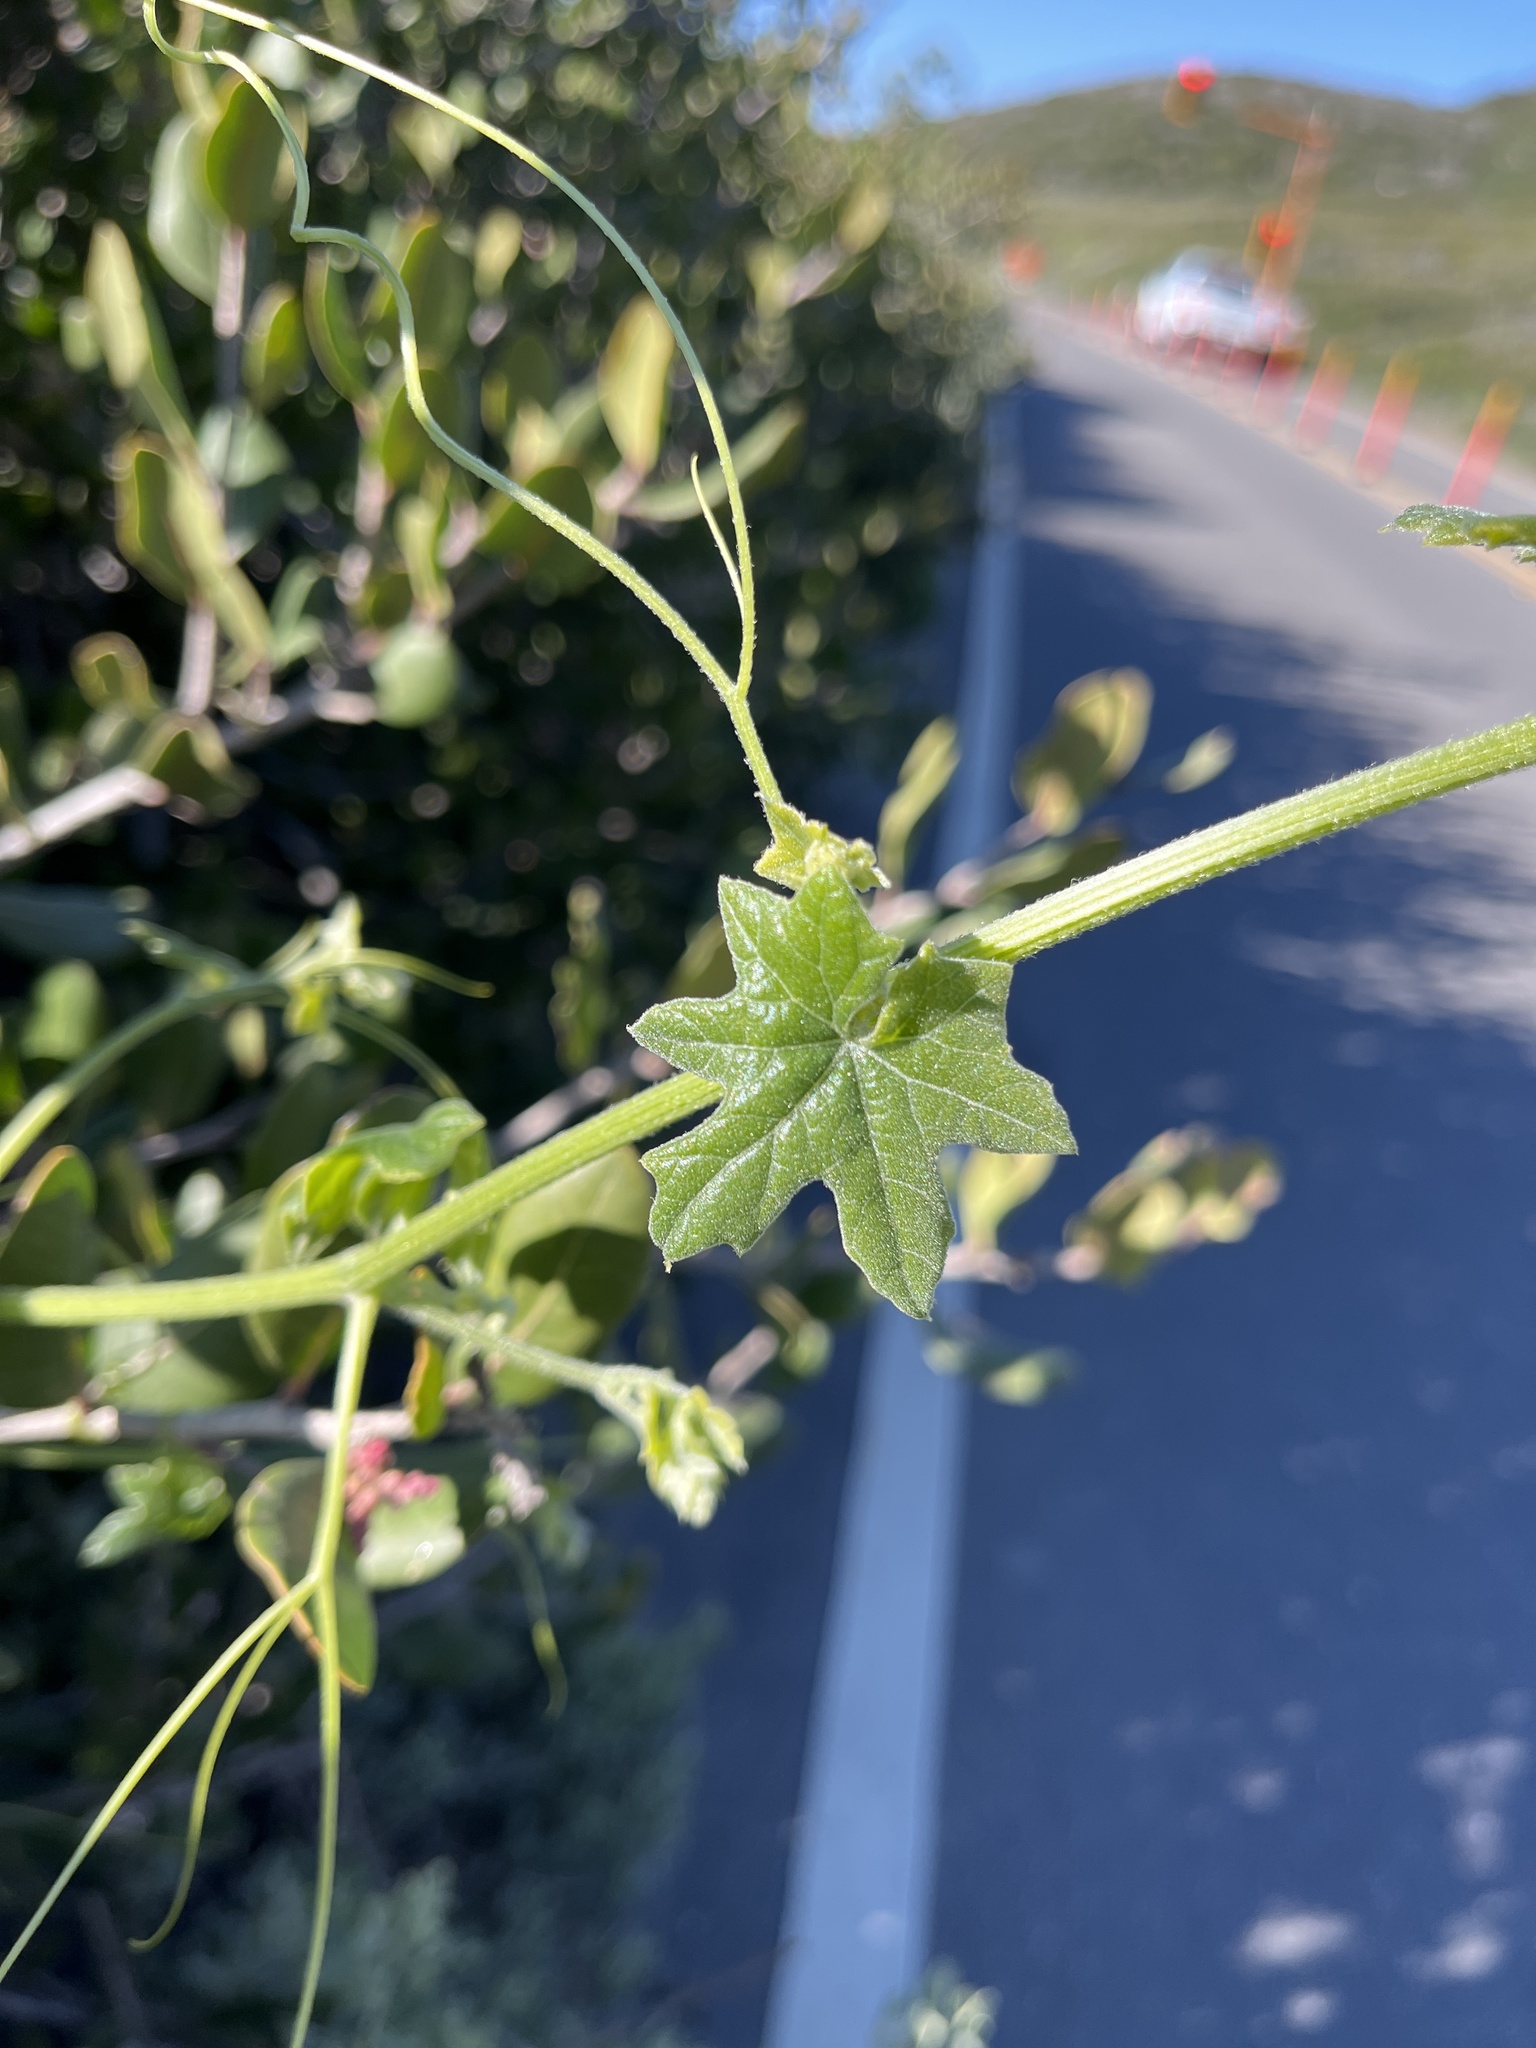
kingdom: Plantae
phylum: Tracheophyta
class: Magnoliopsida
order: Cucurbitales
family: Cucurbitaceae
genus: Marah
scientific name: Marah macrocarpa
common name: Cucamonga manroot
